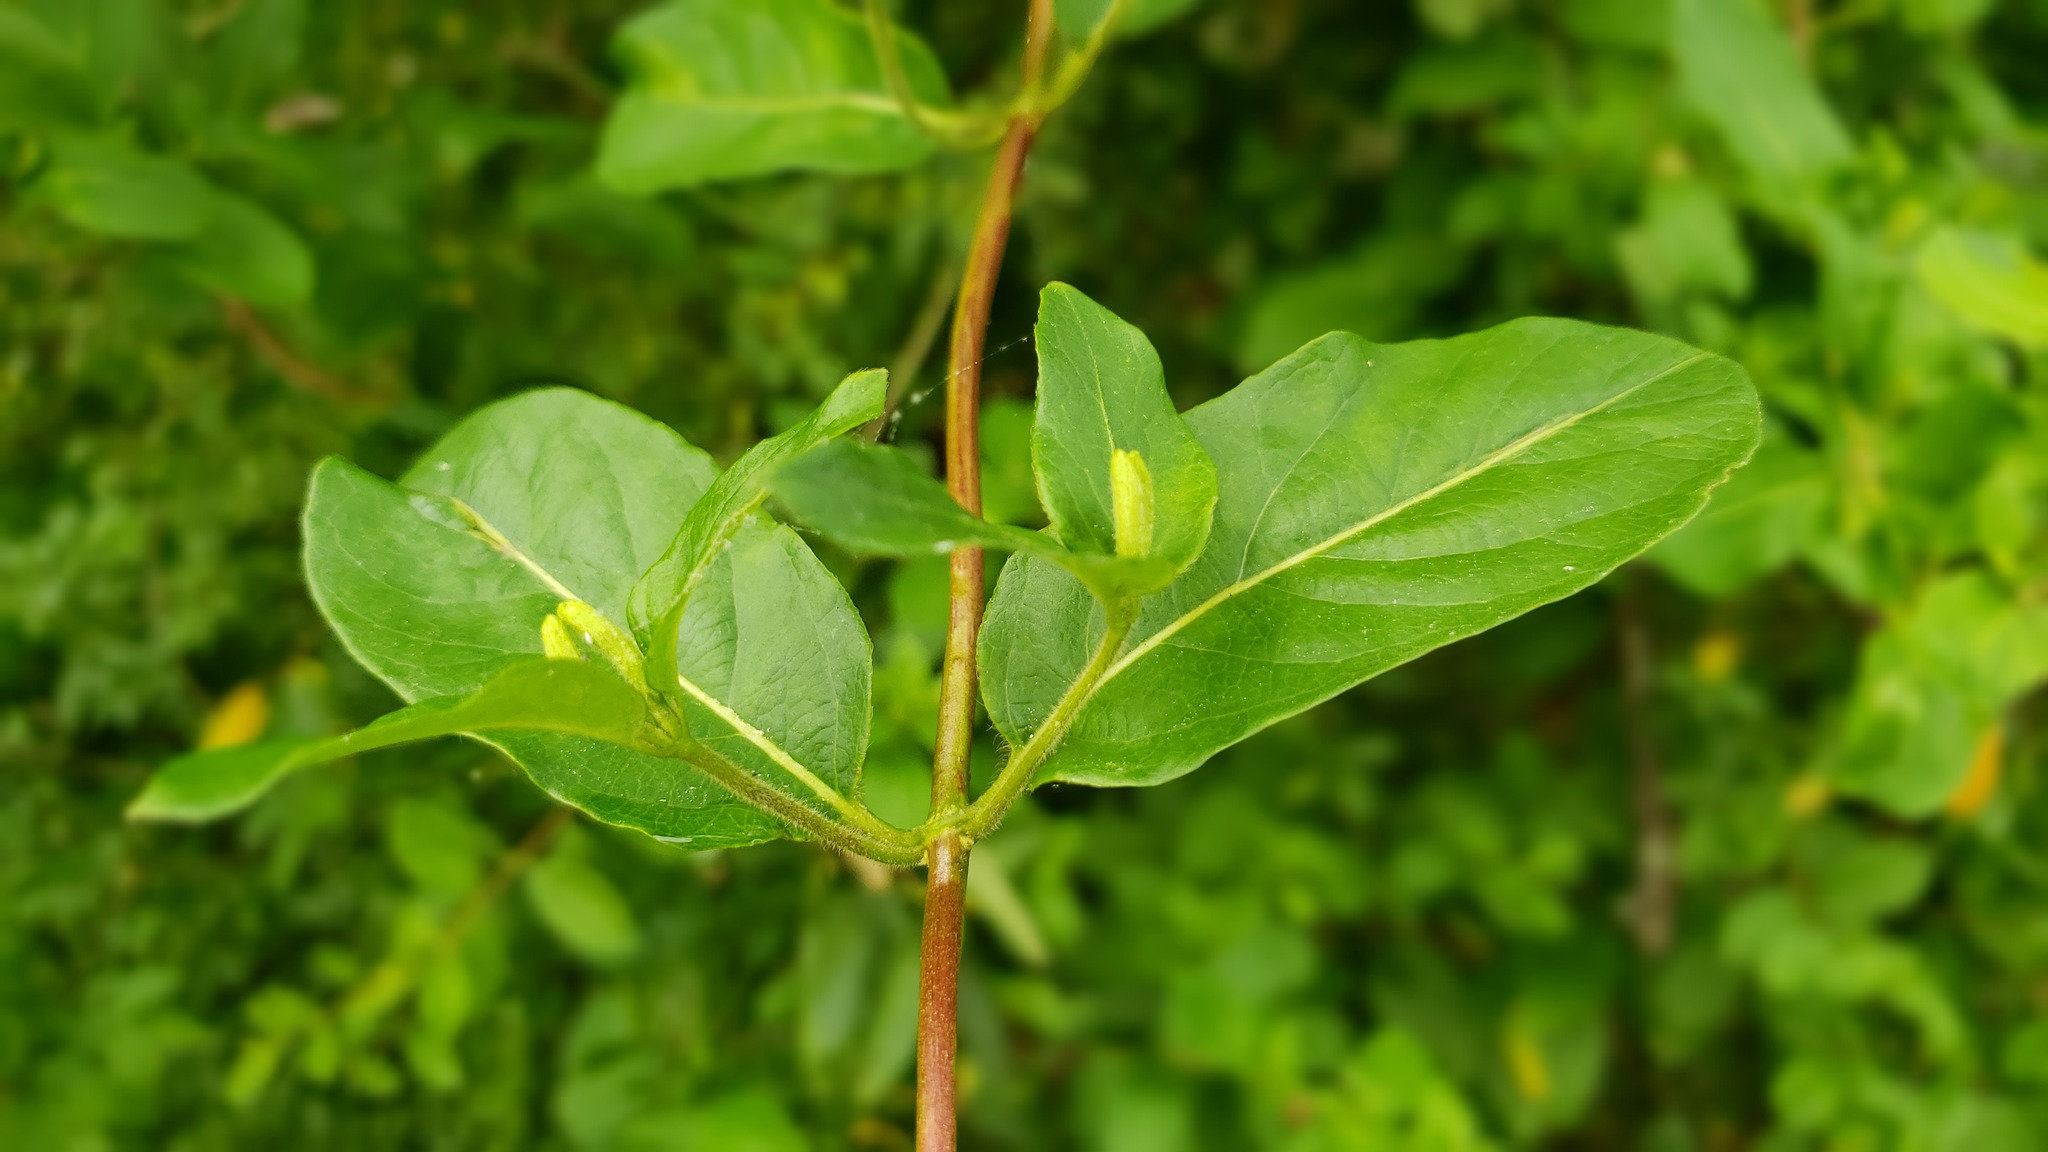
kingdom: Plantae
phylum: Tracheophyta
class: Magnoliopsida
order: Dipsacales
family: Caprifoliaceae
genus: Lonicera
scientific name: Lonicera japonica
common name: Japanese honeysuckle
